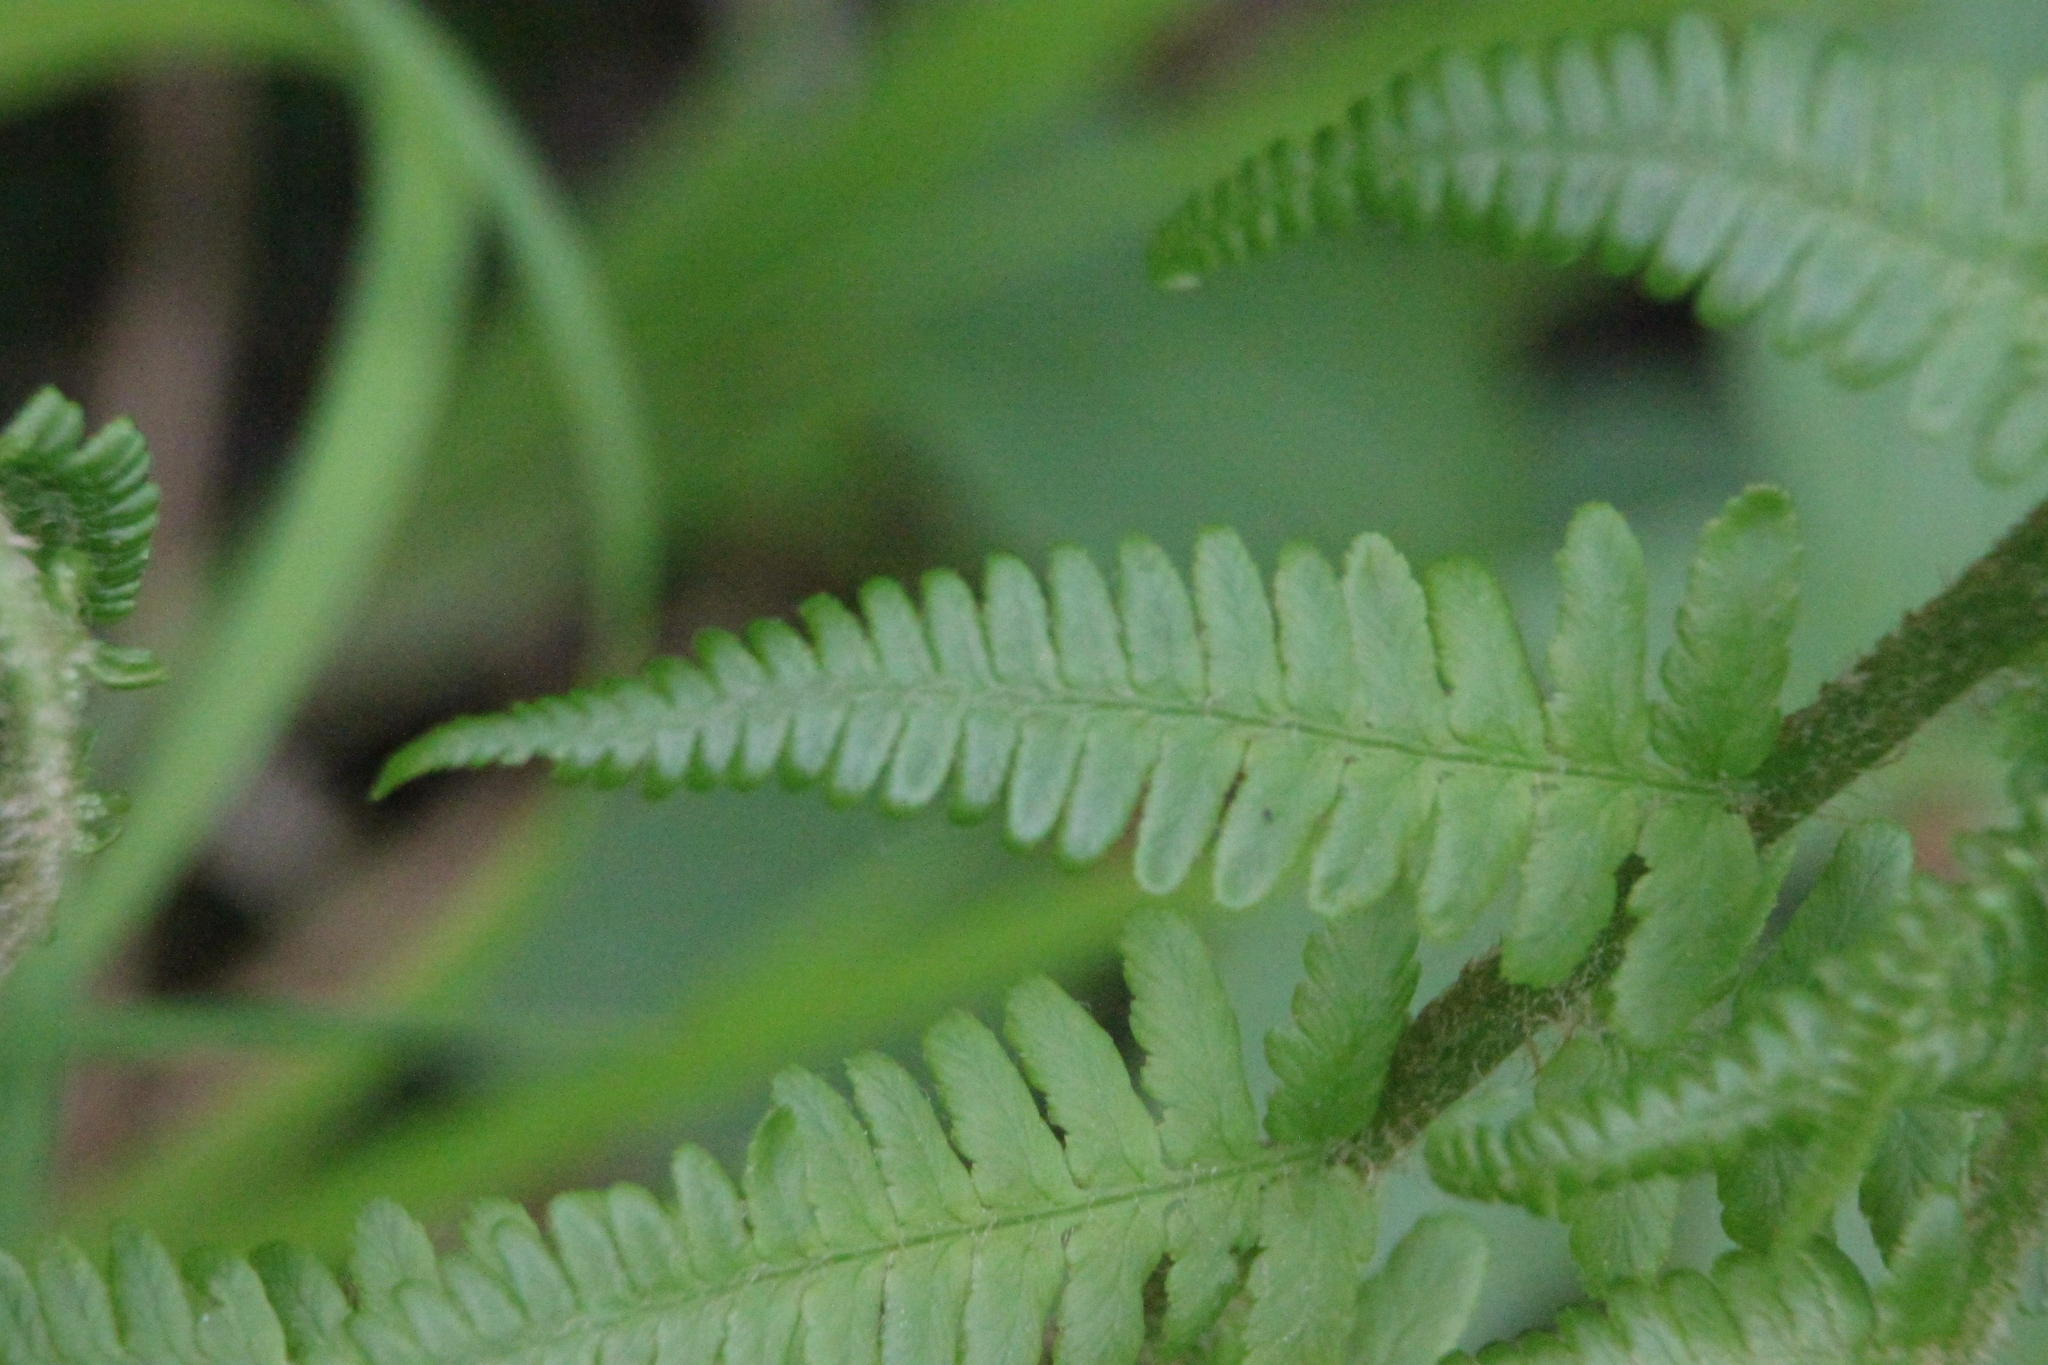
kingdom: Plantae
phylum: Tracheophyta
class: Polypodiopsida
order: Polypodiales
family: Dryopteridaceae
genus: Dryopteris
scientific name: Dryopteris filix-mas
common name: Male fern
